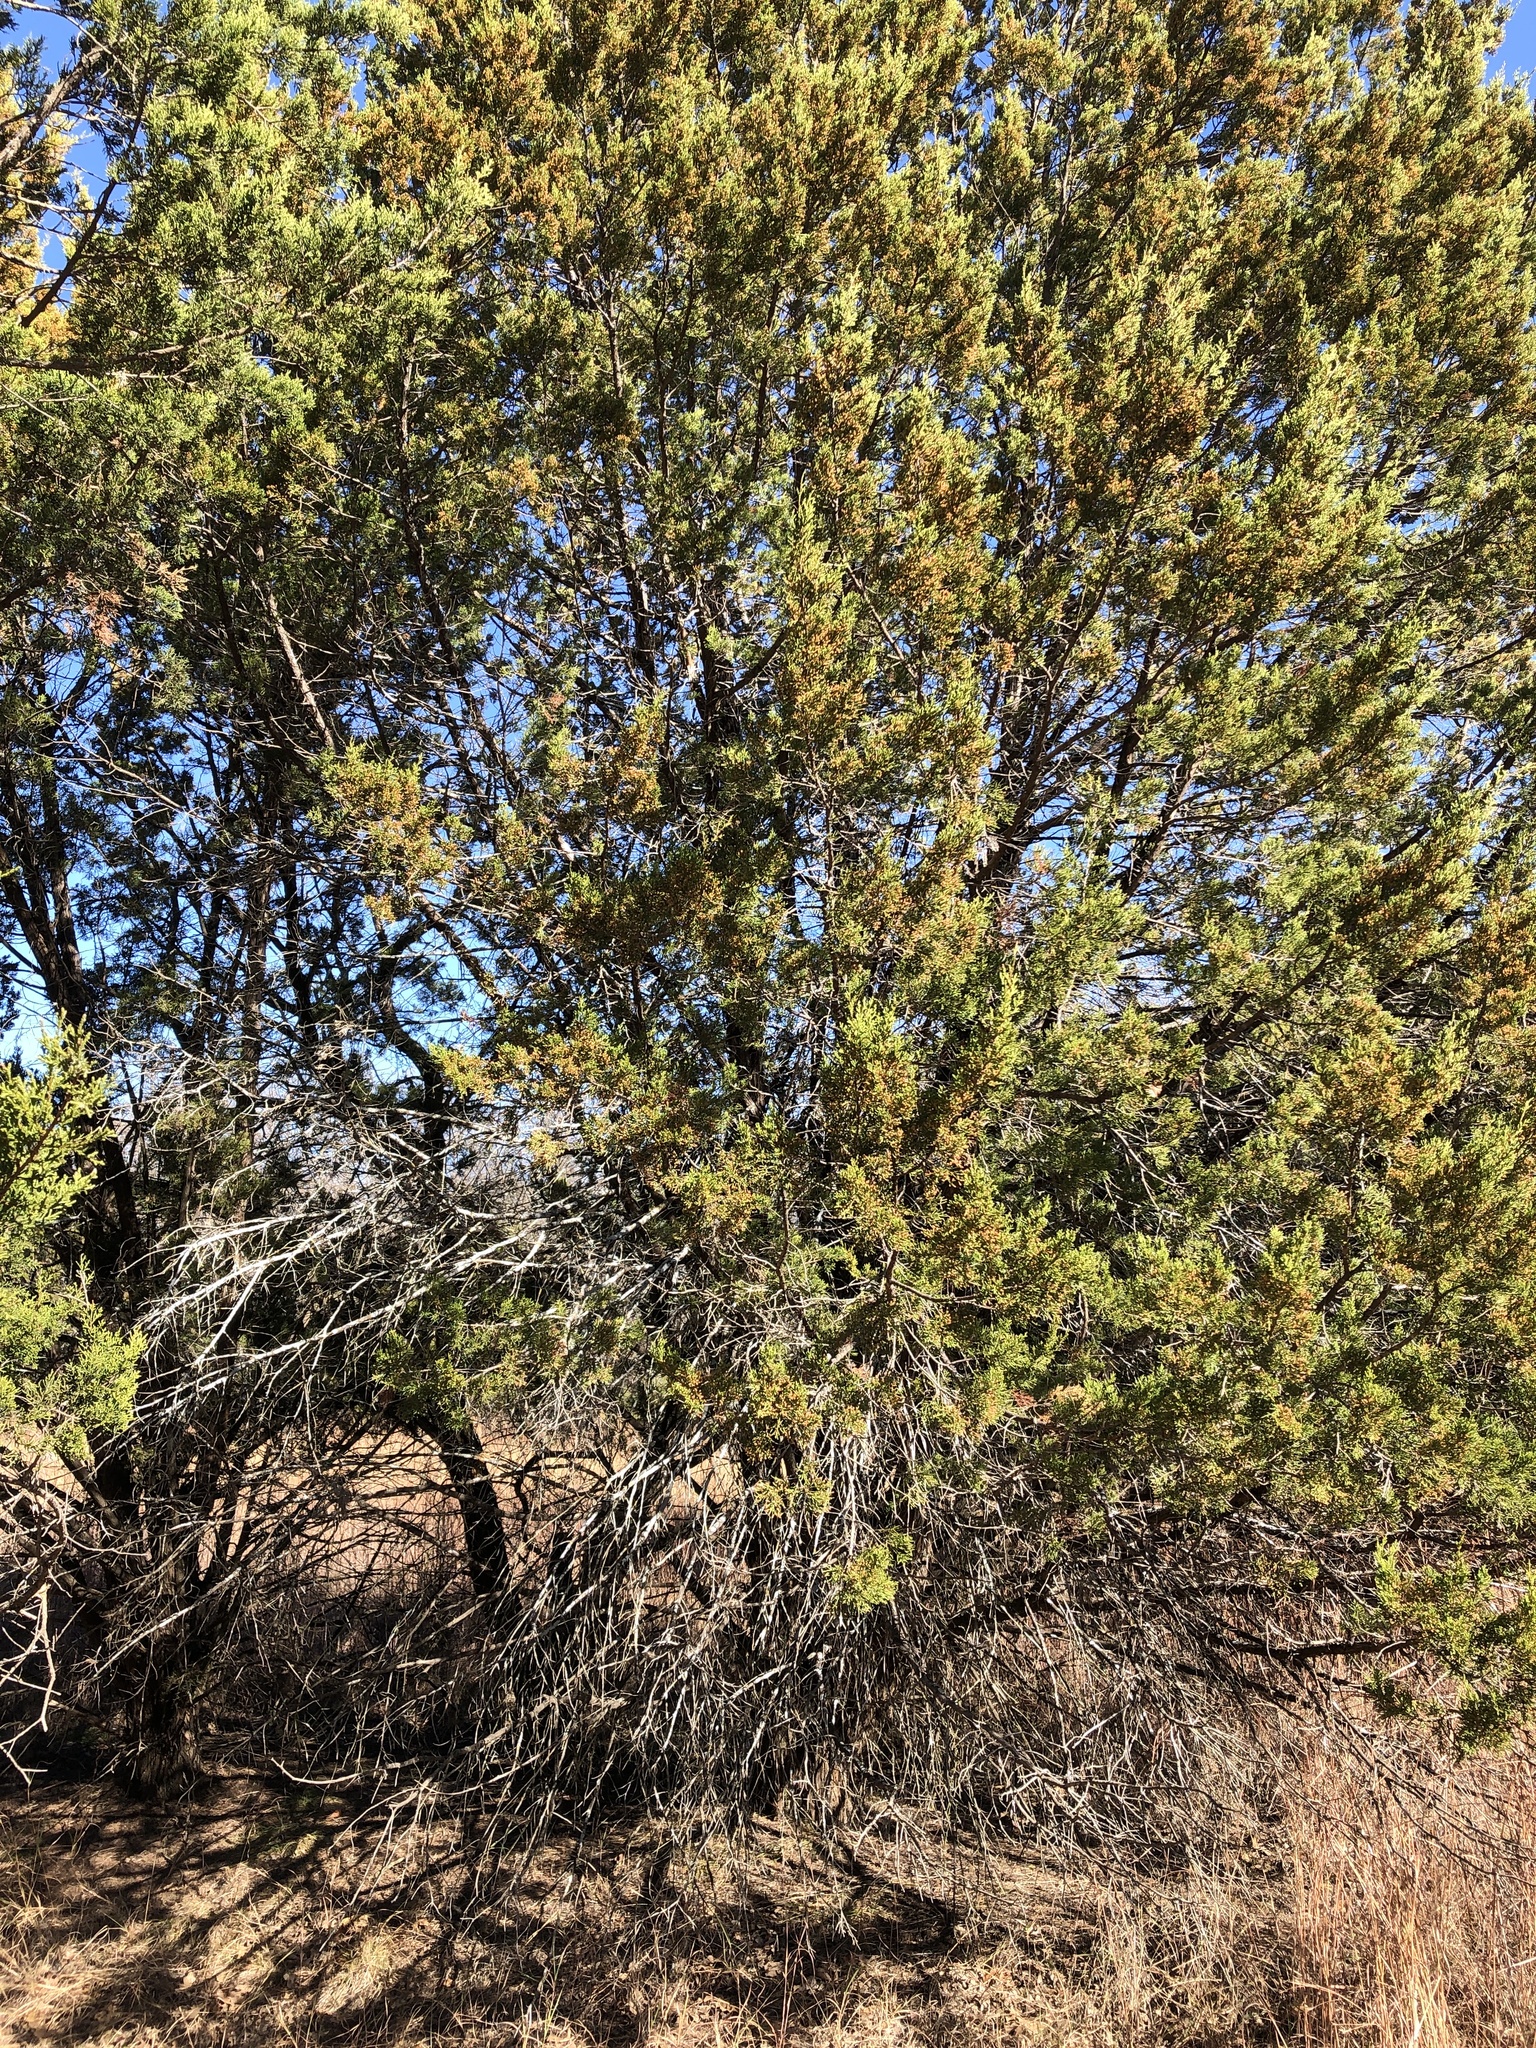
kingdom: Plantae
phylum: Tracheophyta
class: Pinopsida
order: Pinales
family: Cupressaceae
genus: Juniperus
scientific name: Juniperus ashei
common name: Mexican juniper
